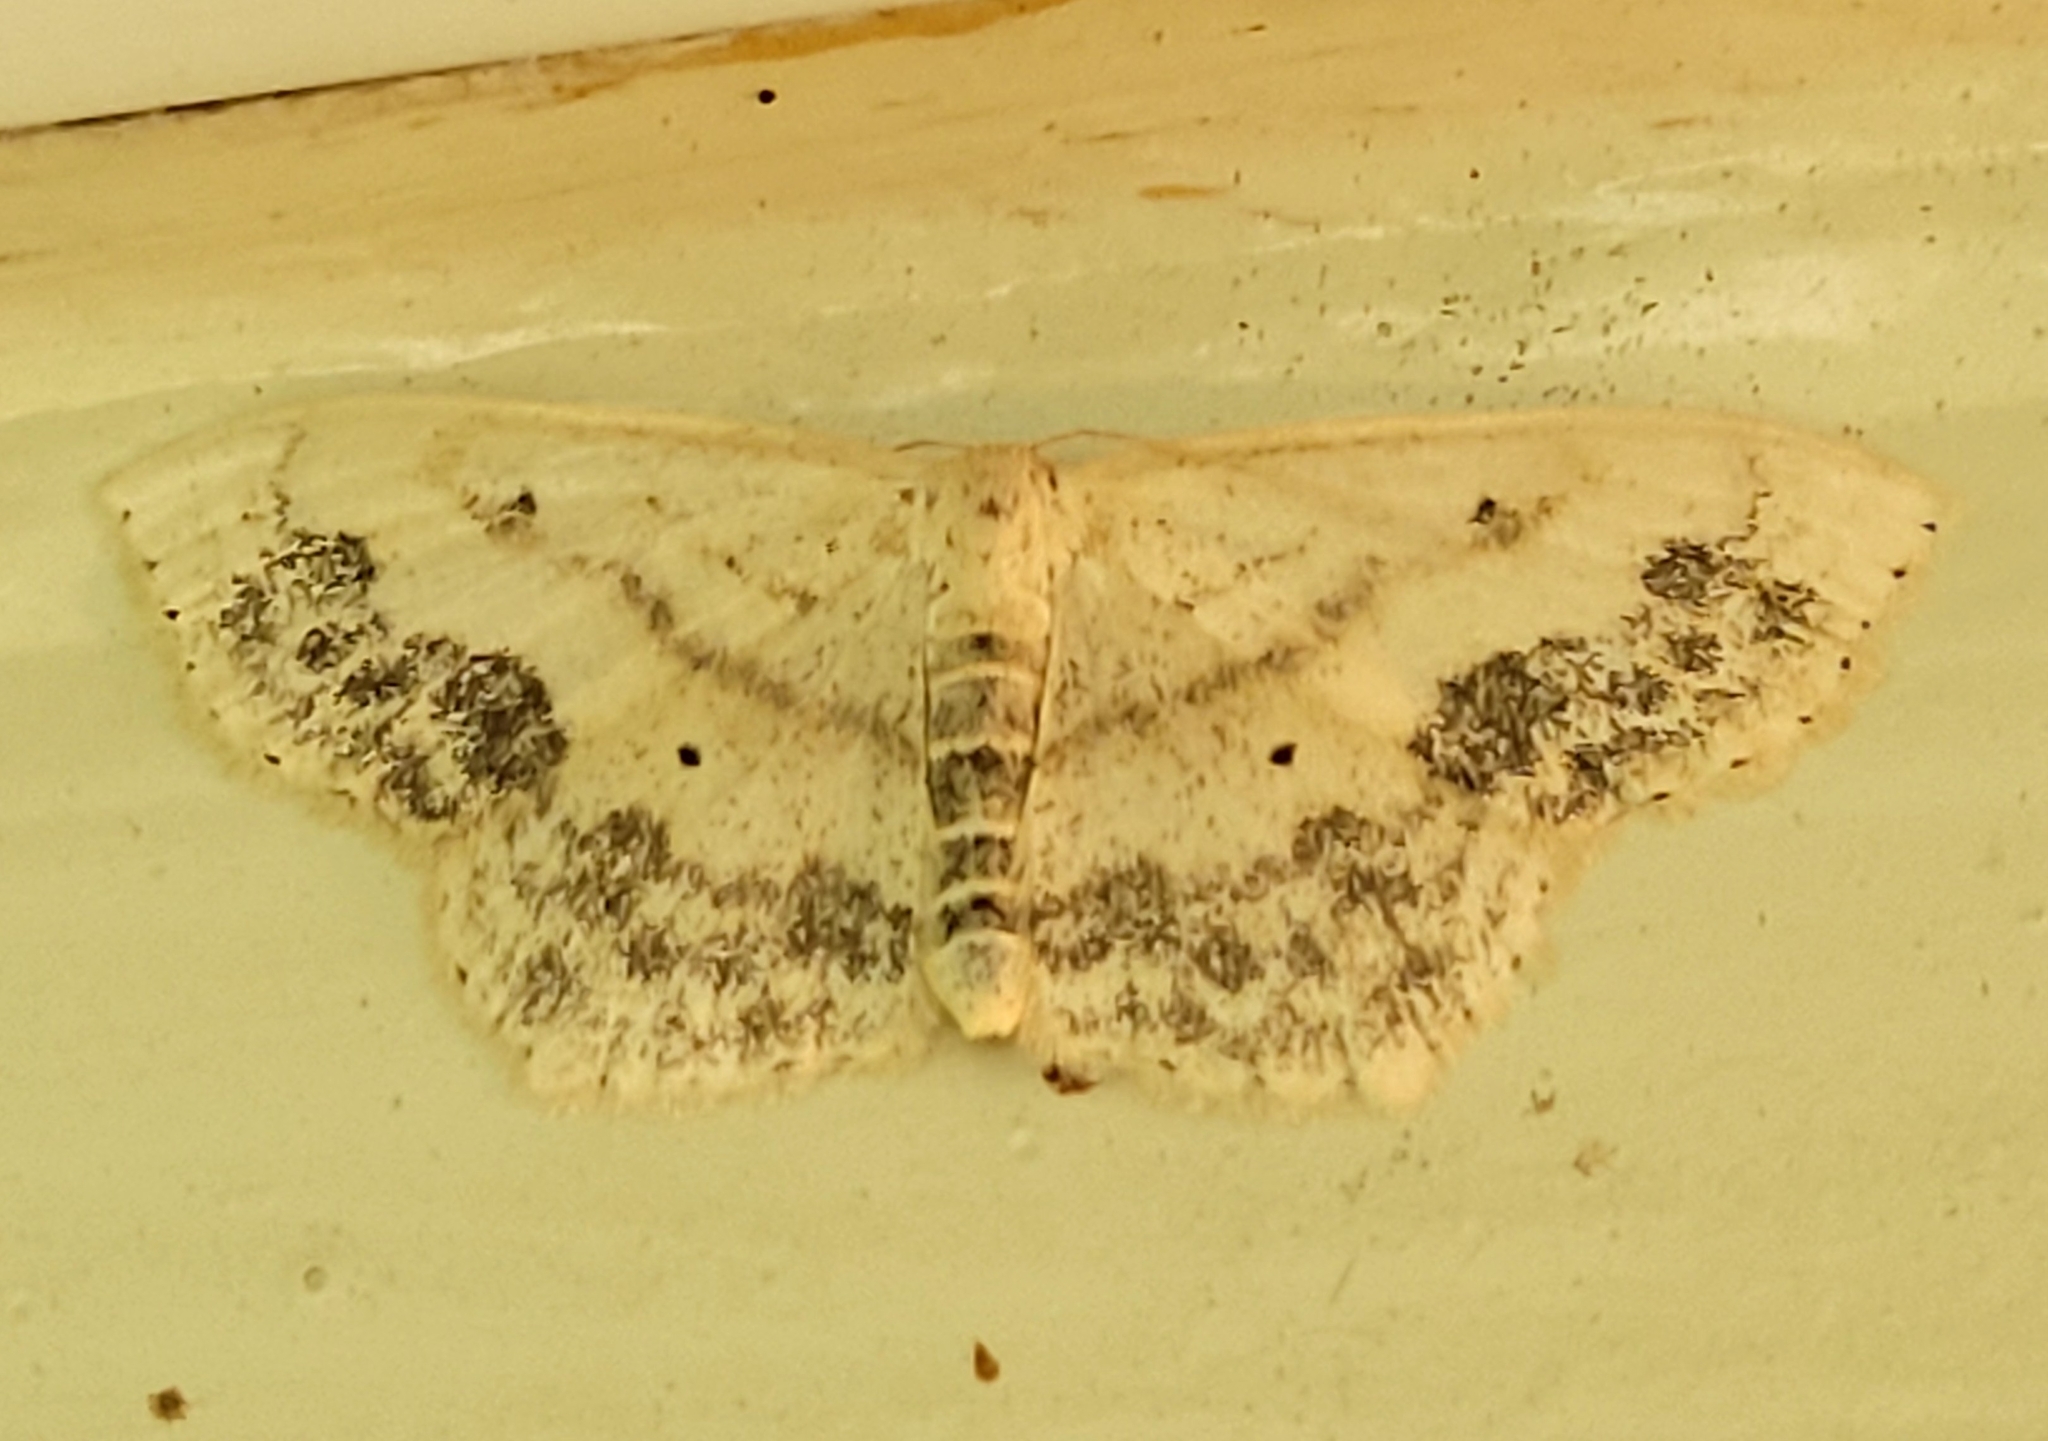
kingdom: Animalia
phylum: Arthropoda
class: Insecta
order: Lepidoptera
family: Geometridae
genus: Scopula
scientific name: Scopula limboundata
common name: Large lace border
